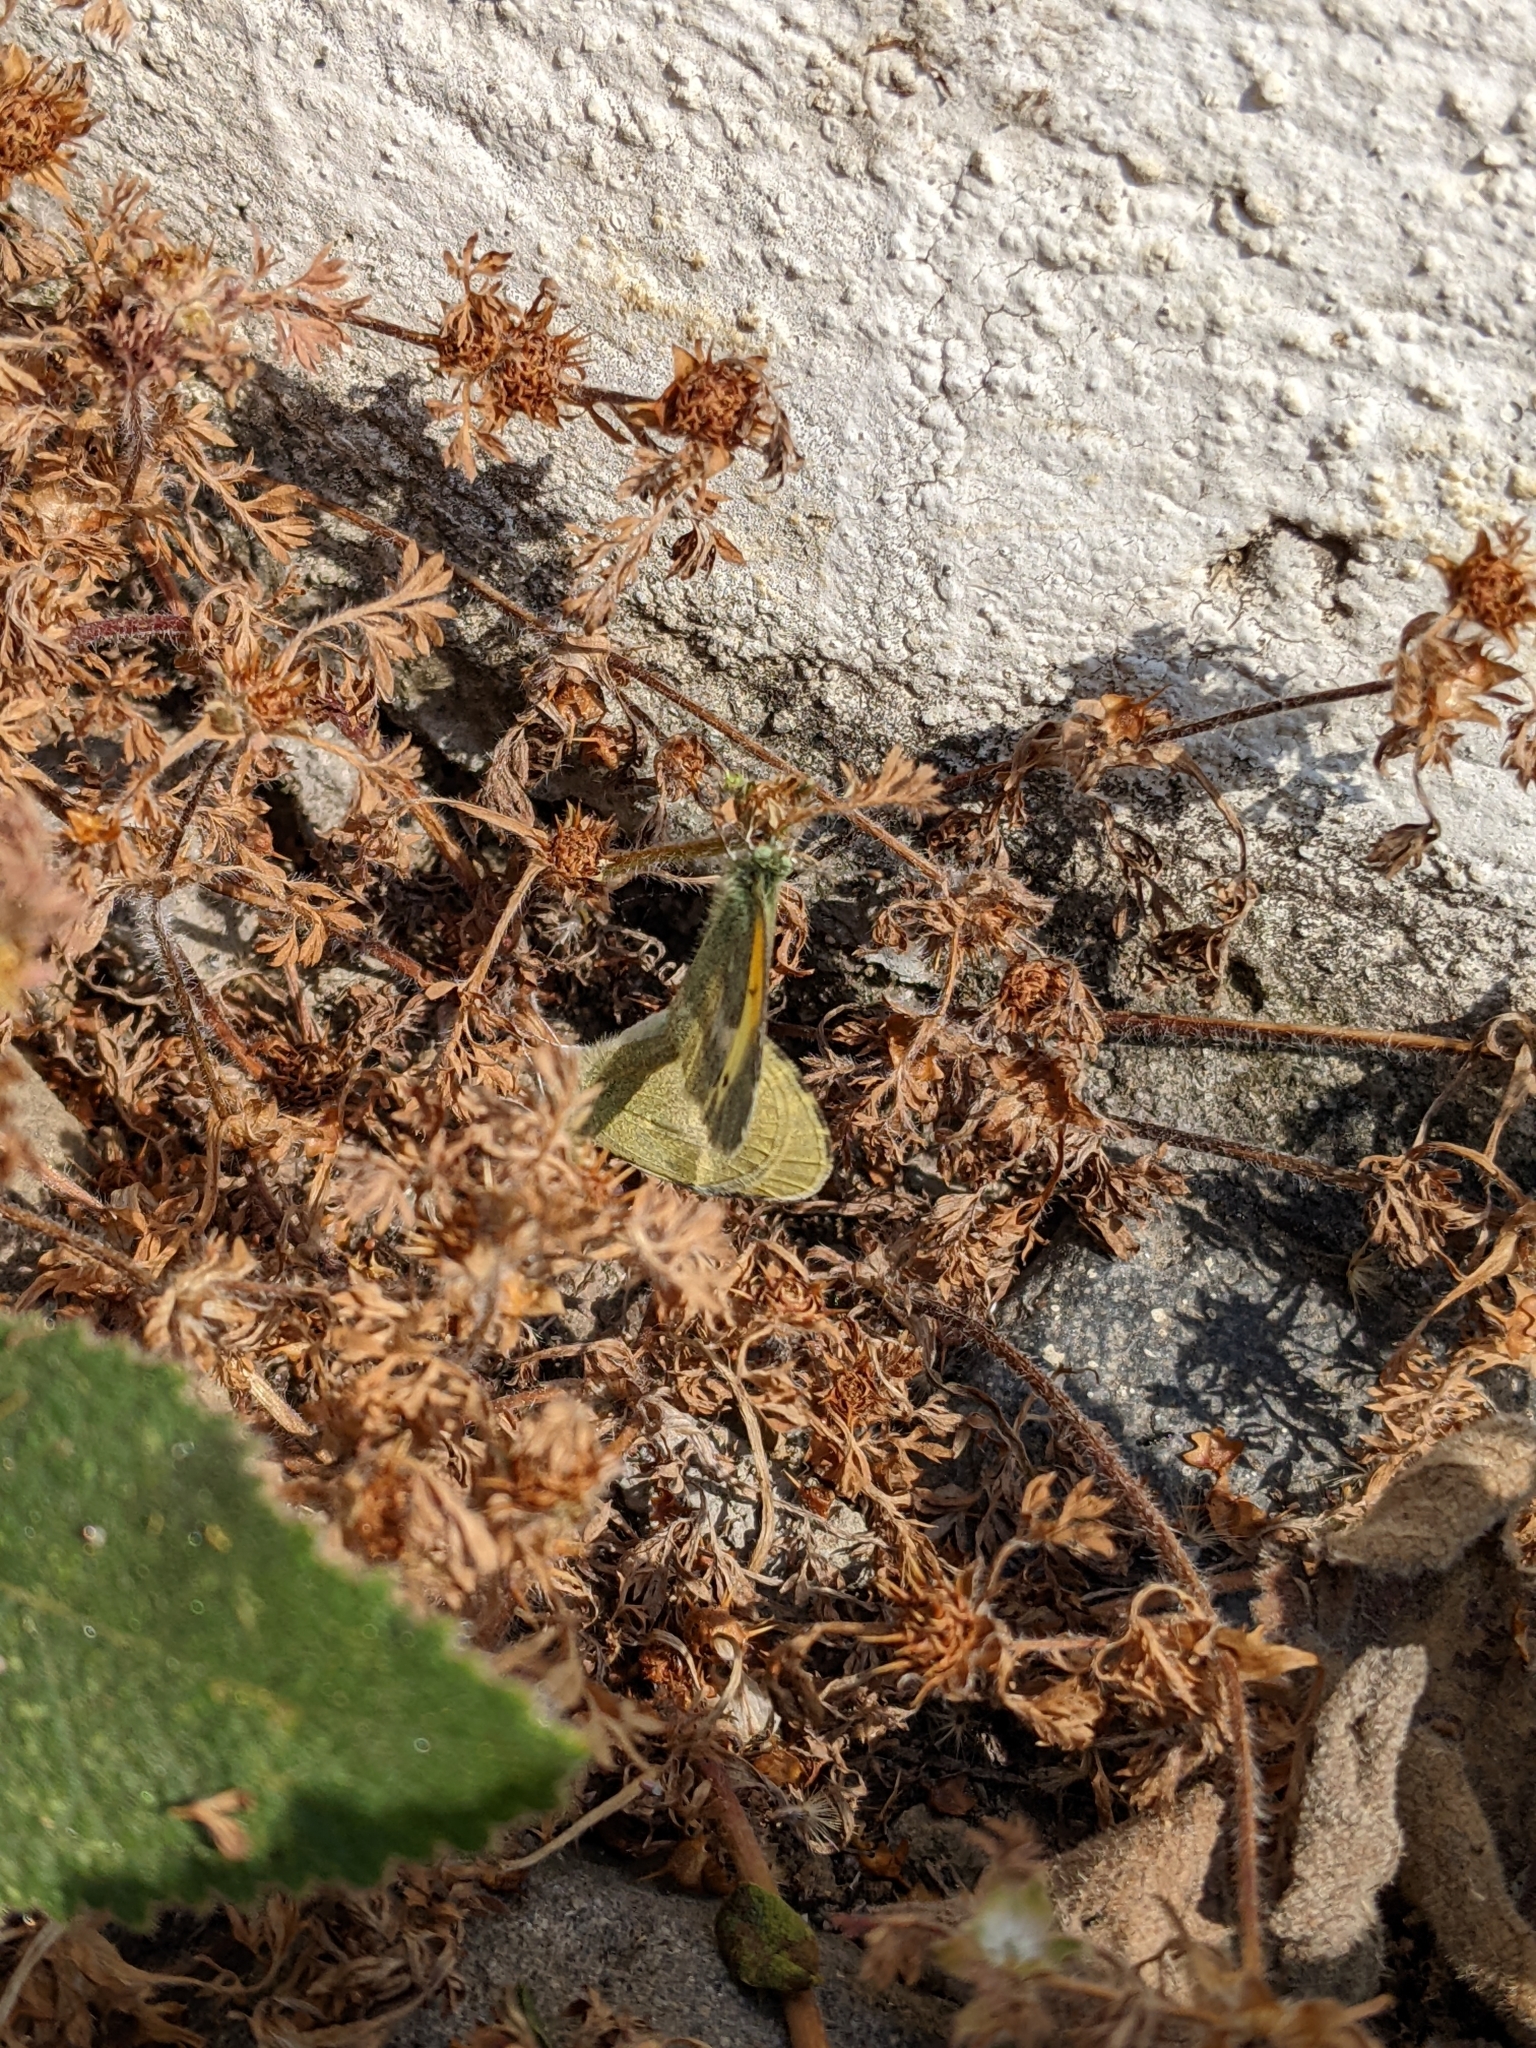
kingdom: Animalia
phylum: Arthropoda
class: Insecta
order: Lepidoptera
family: Pieridae
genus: Nathalis
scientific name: Nathalis iole
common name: Dainty sulphur
